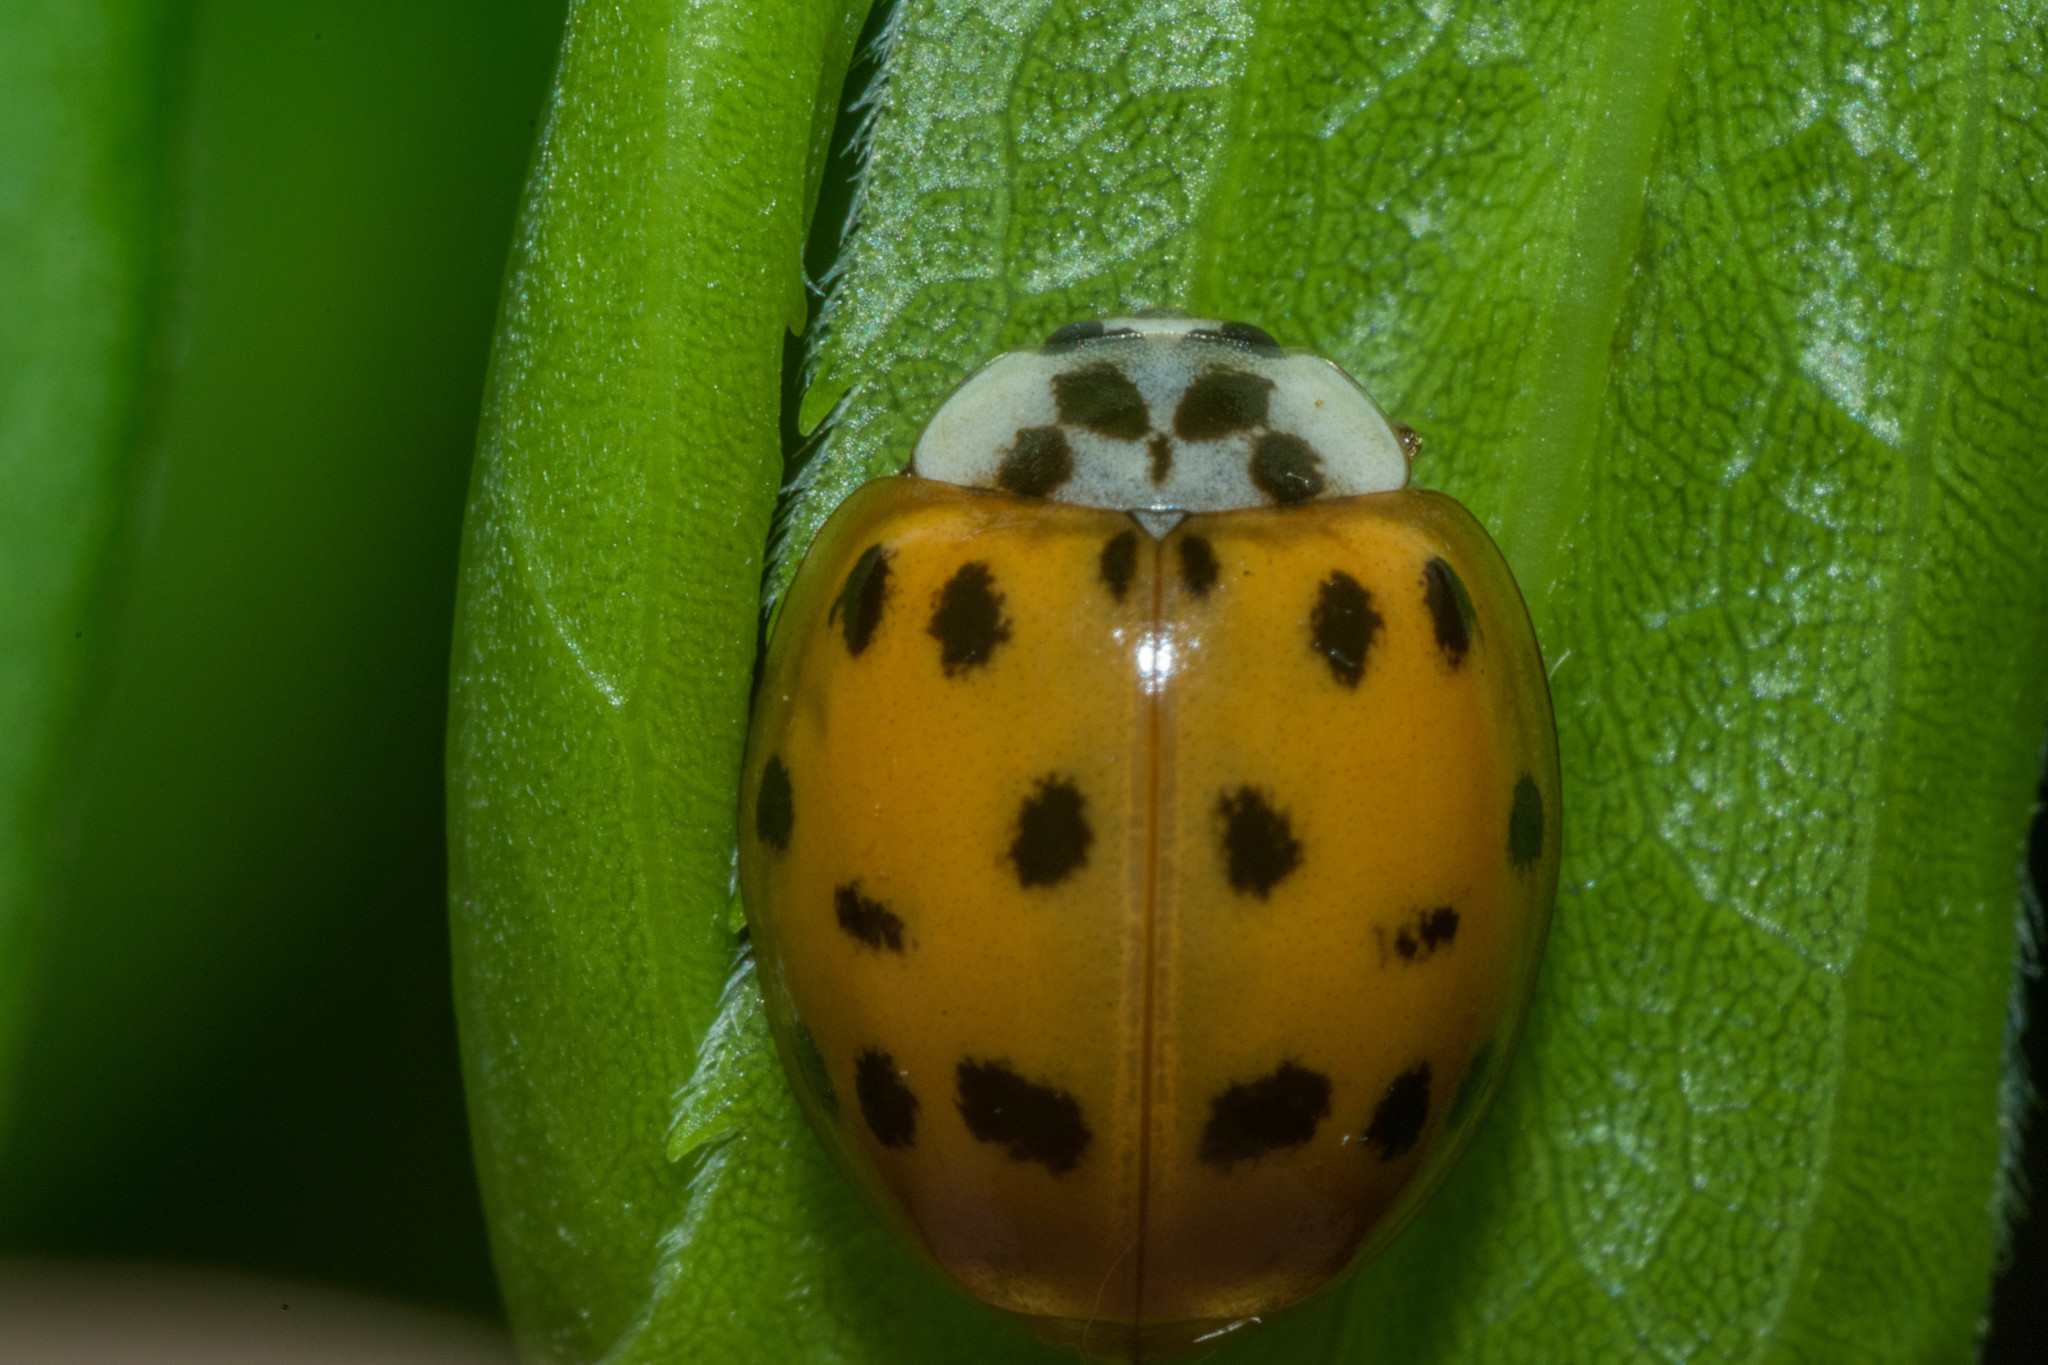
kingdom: Animalia
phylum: Arthropoda
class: Insecta
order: Coleoptera
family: Coccinellidae
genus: Harmonia
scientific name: Harmonia axyridis
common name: Harlequin ladybird
